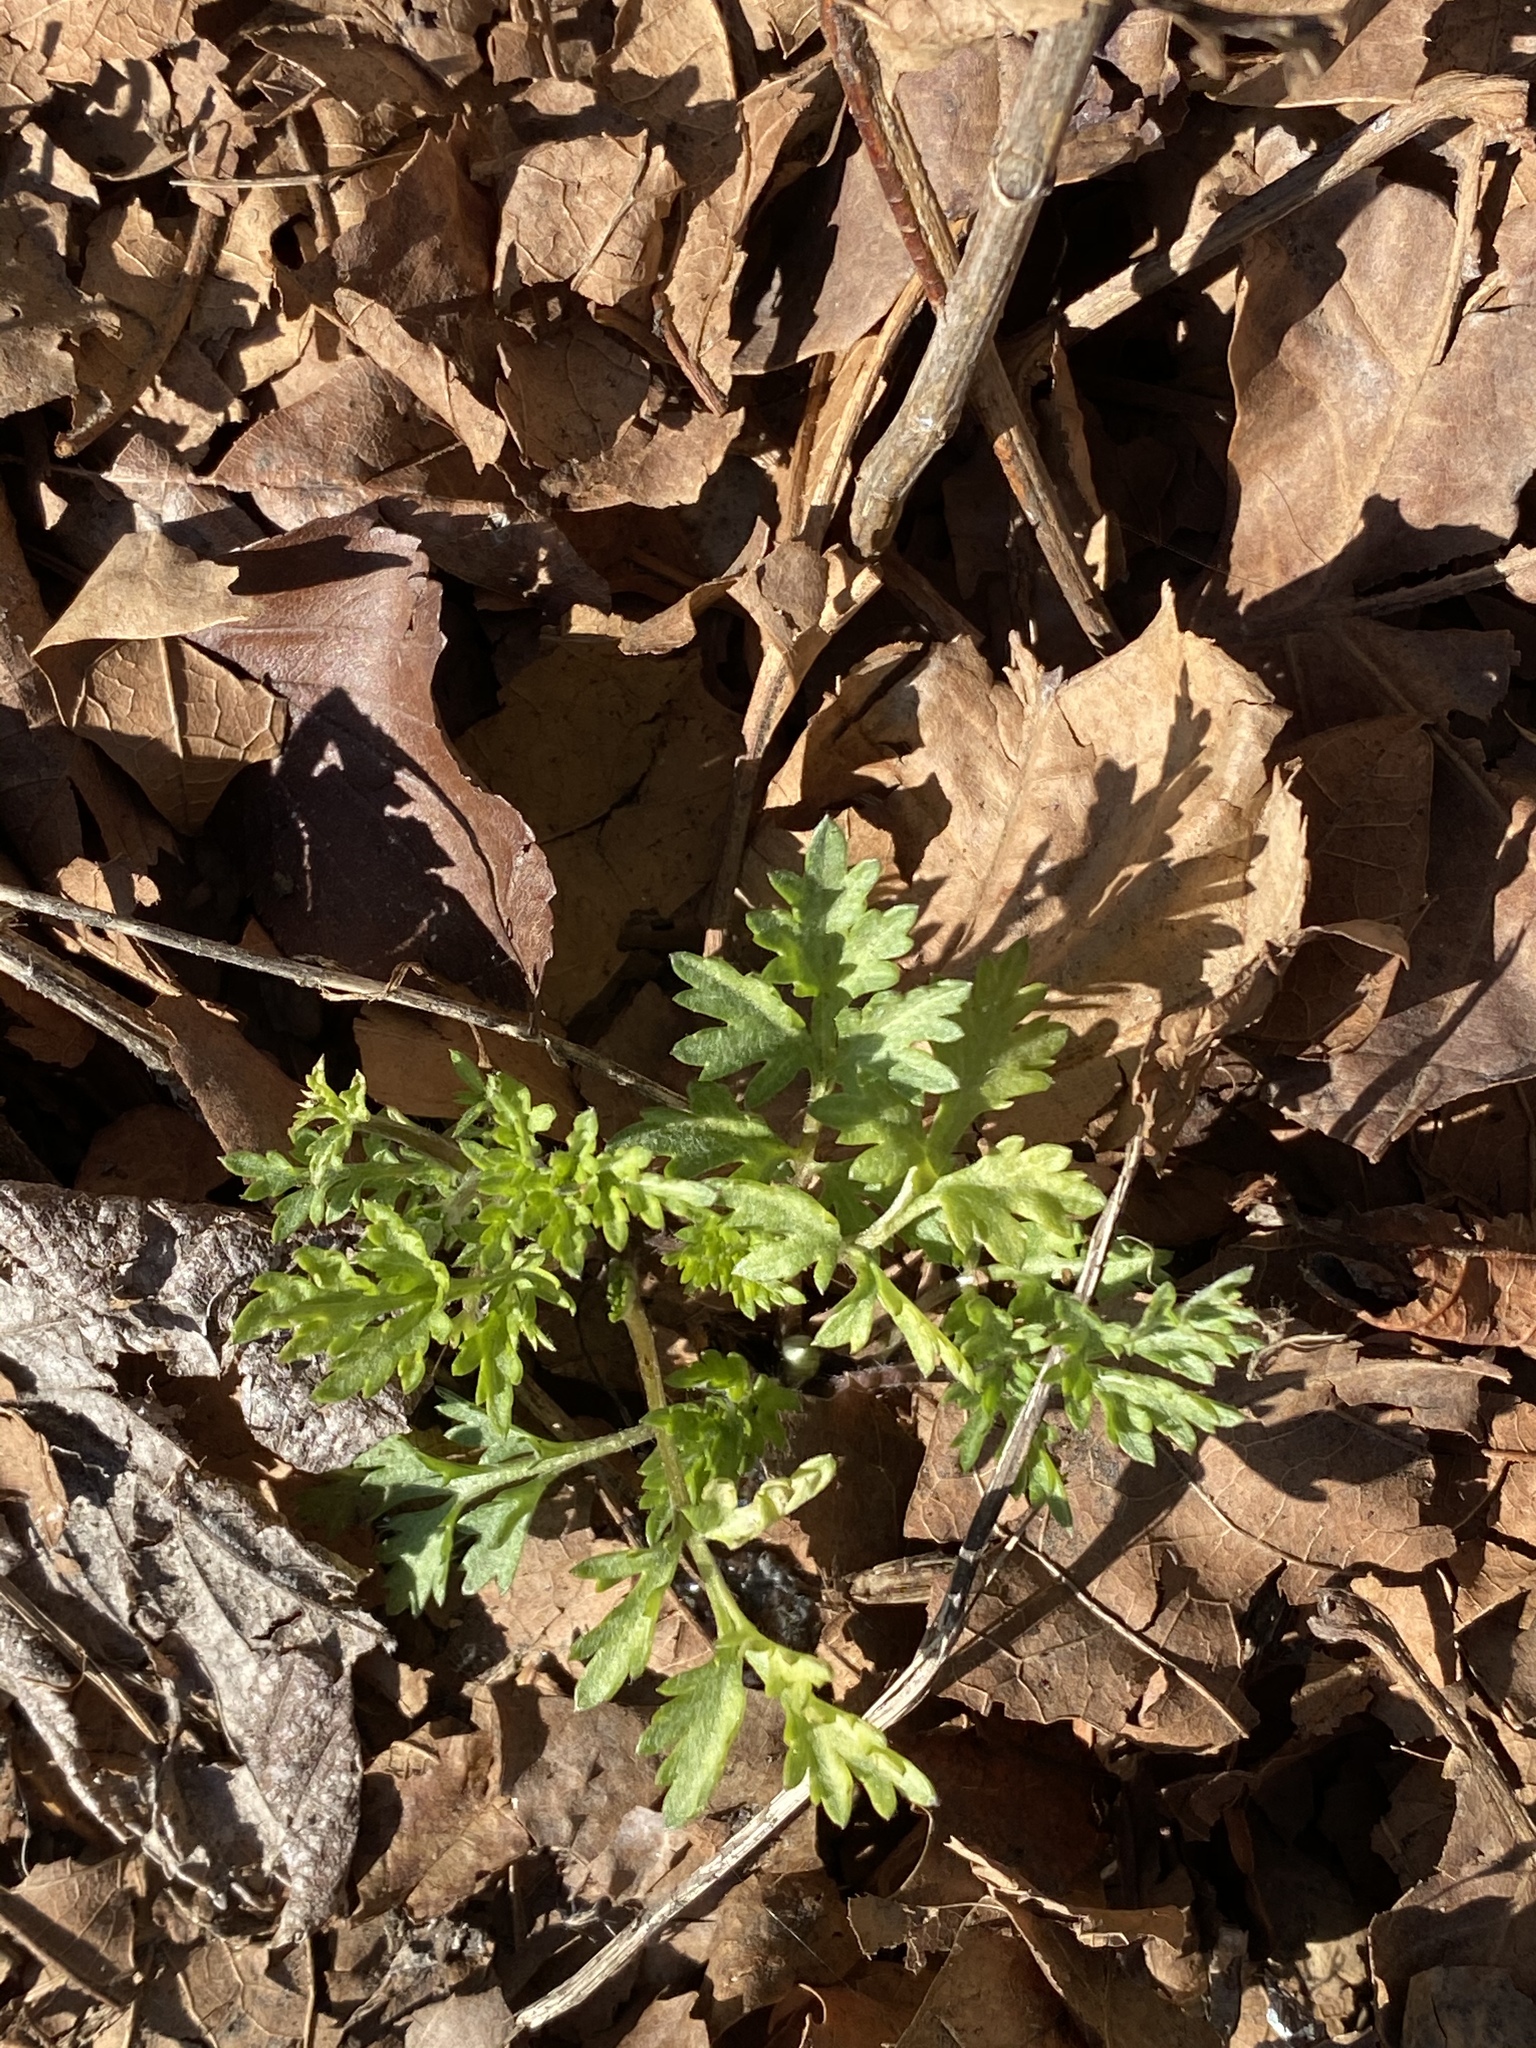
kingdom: Plantae
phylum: Tracheophyta
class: Magnoliopsida
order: Asterales
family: Asteraceae
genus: Artemisia
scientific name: Artemisia vulgaris
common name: Mugwort
